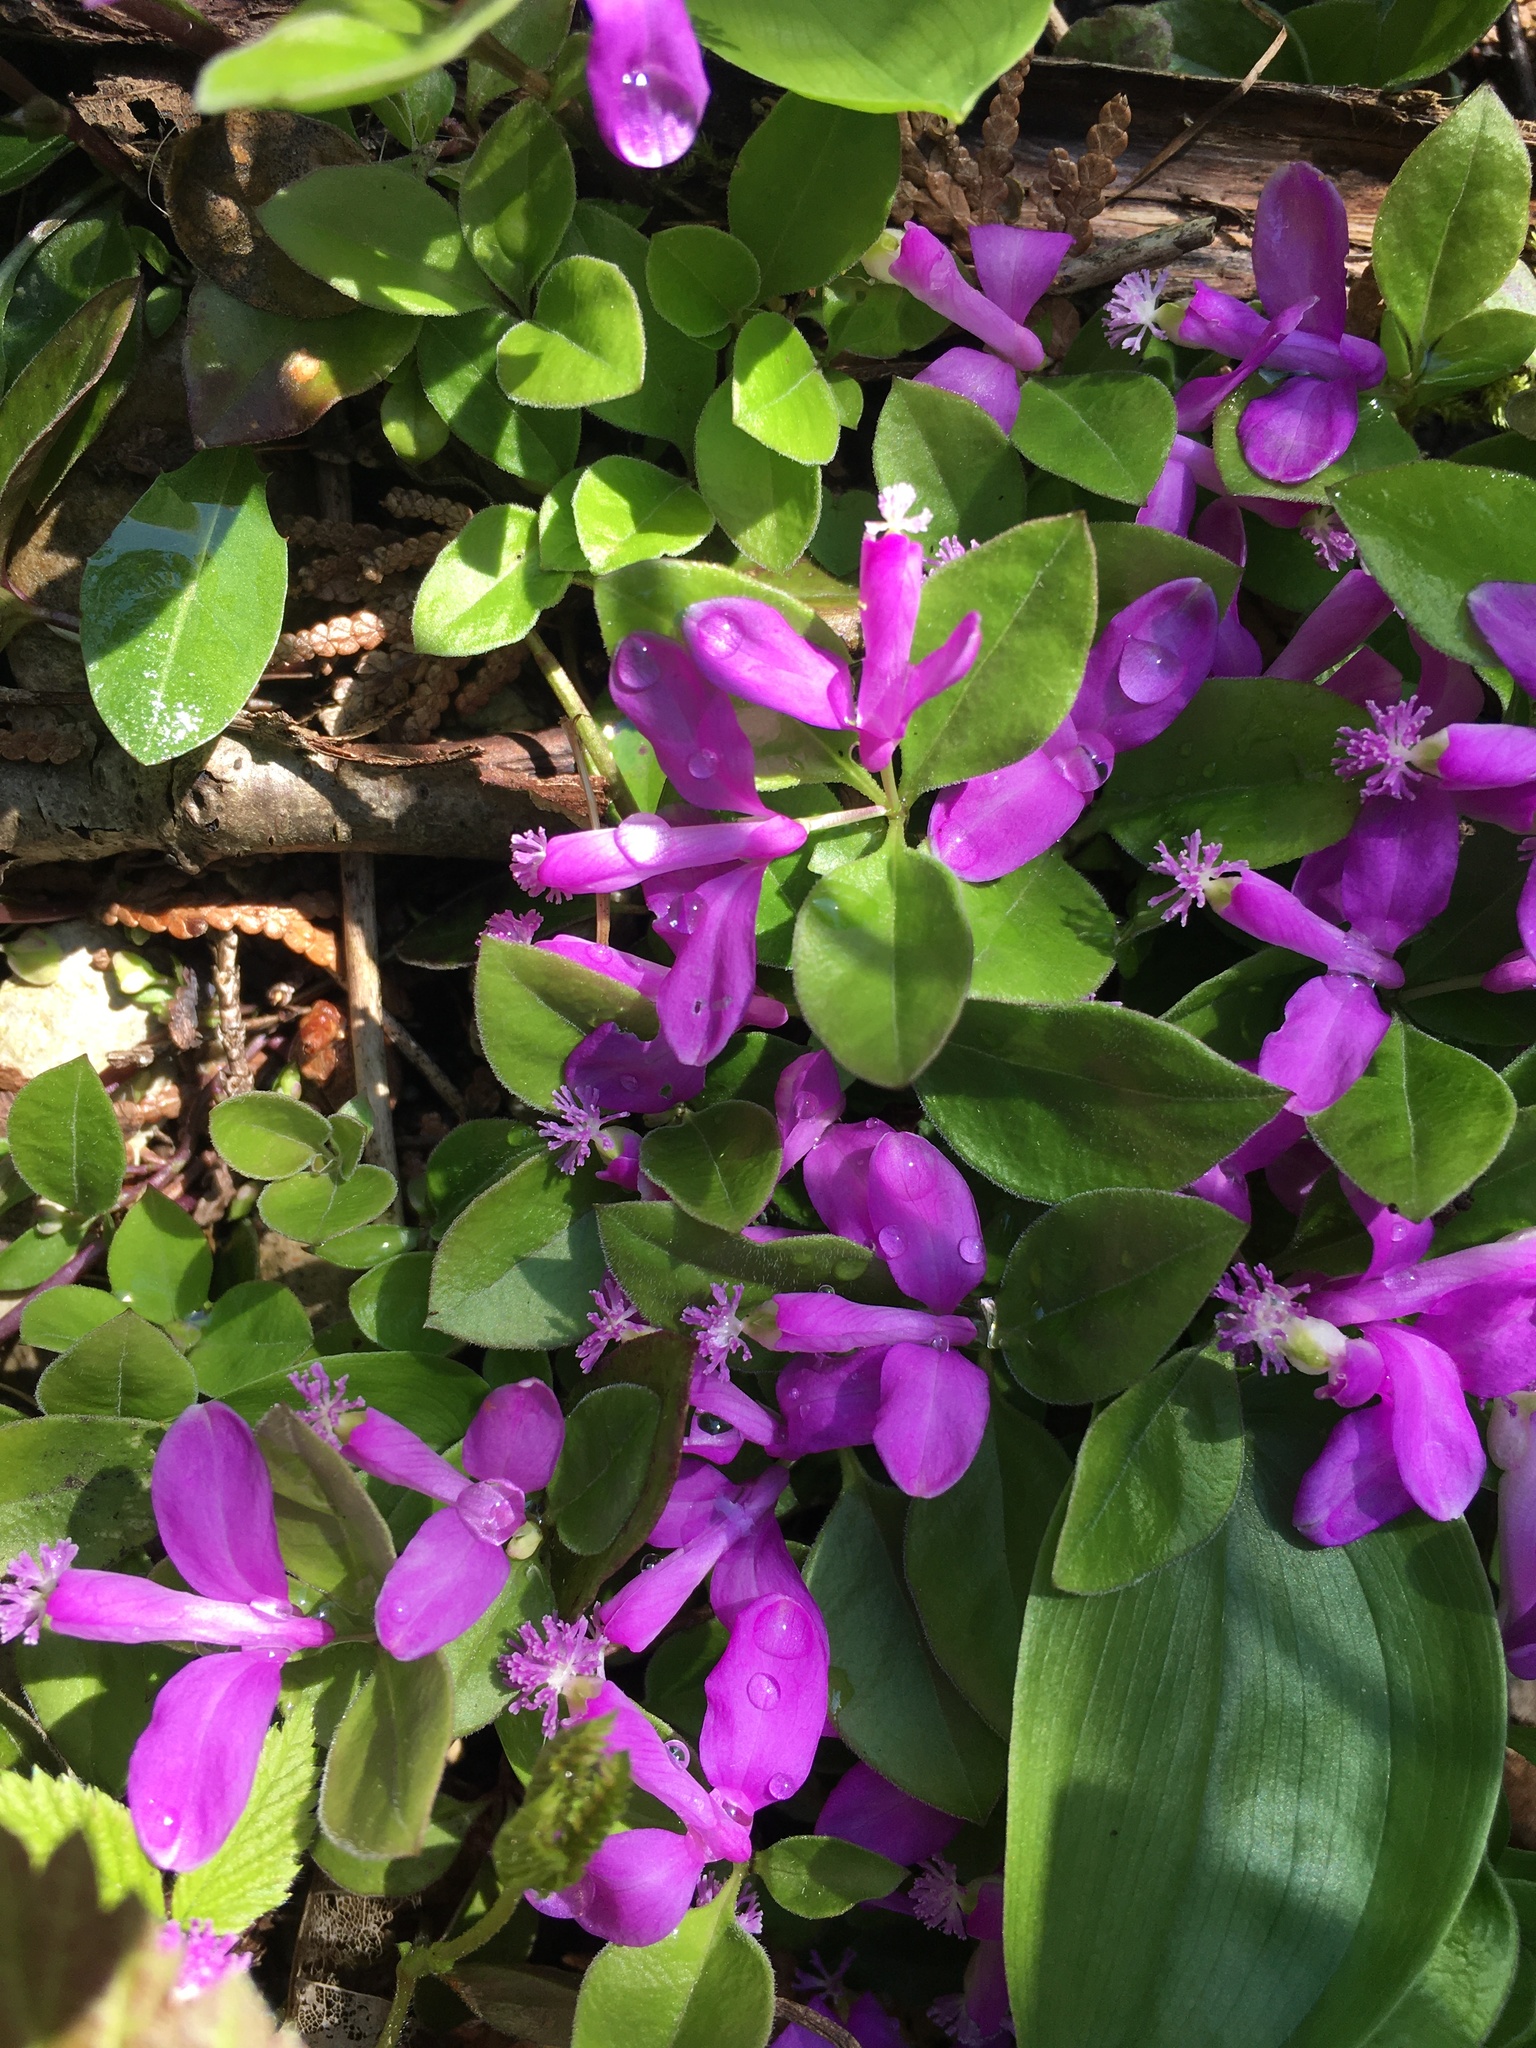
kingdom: Plantae
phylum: Tracheophyta
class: Magnoliopsida
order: Fabales
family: Polygalaceae
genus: Polygaloides
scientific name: Polygaloides paucifolia
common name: Bird-on-the-wing
